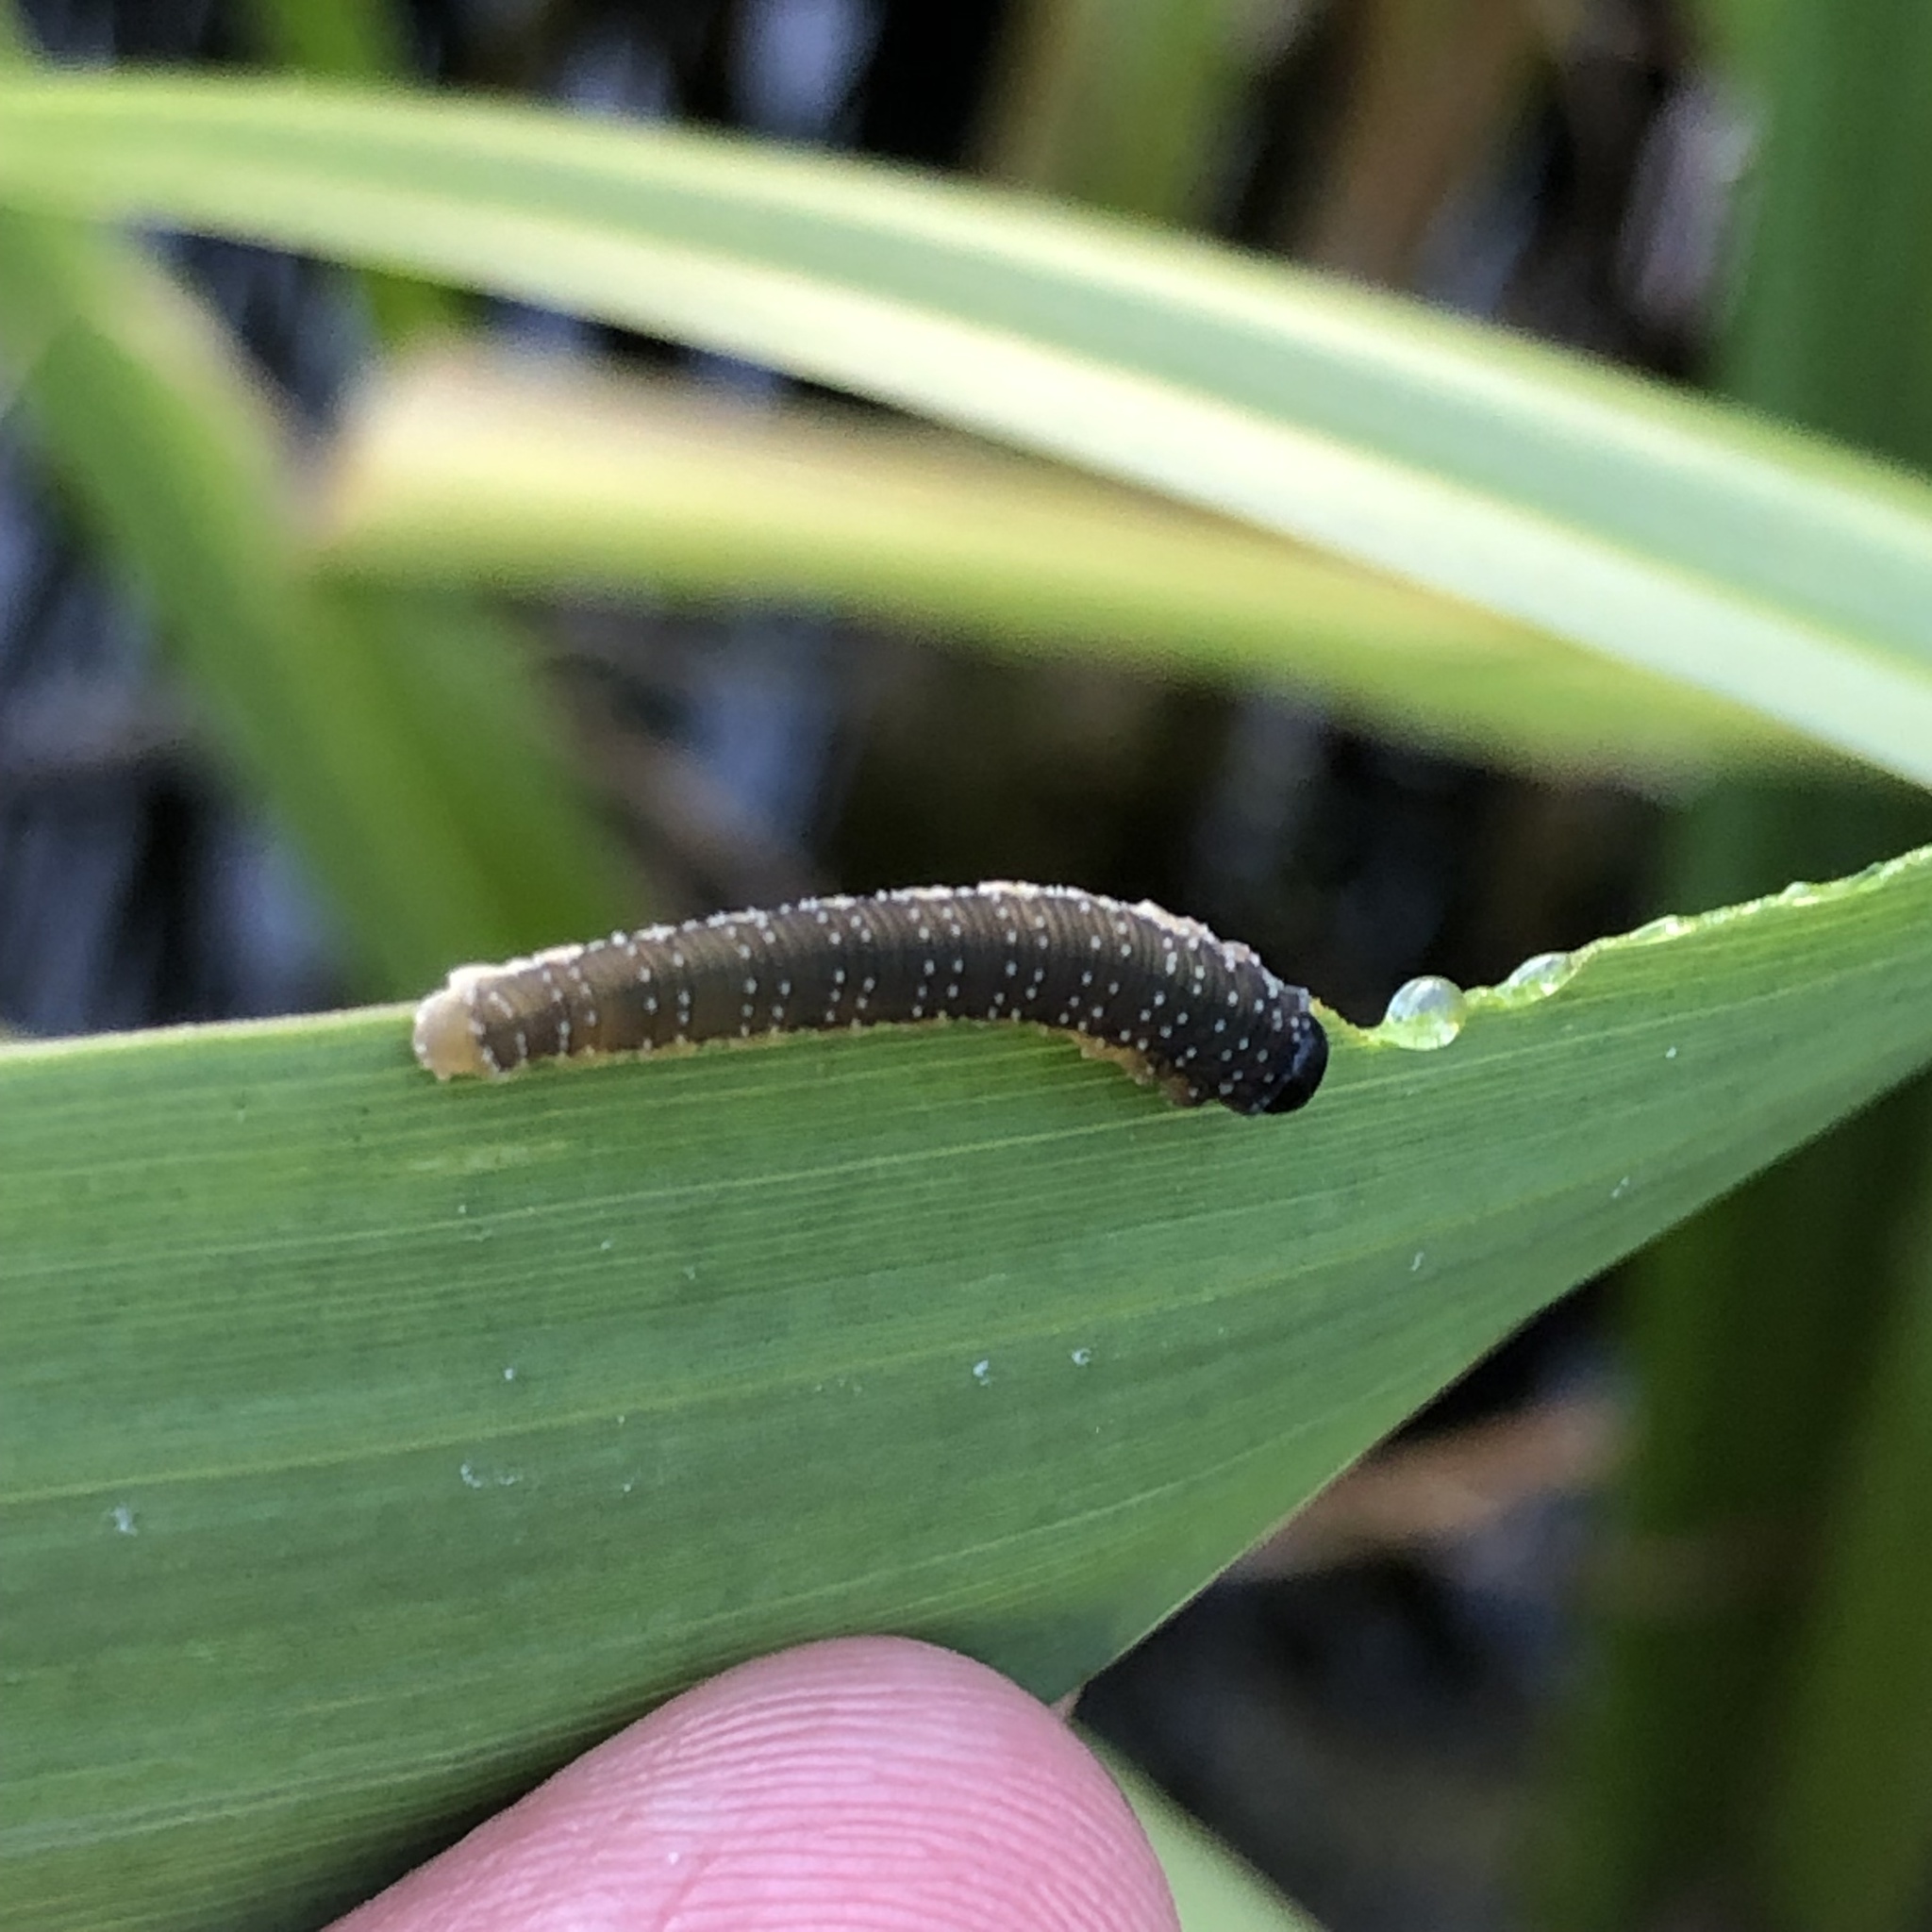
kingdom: Animalia
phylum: Arthropoda
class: Insecta
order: Hymenoptera
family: Tenthredinidae
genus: Rhadinoceraea
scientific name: Rhadinoceraea micans
